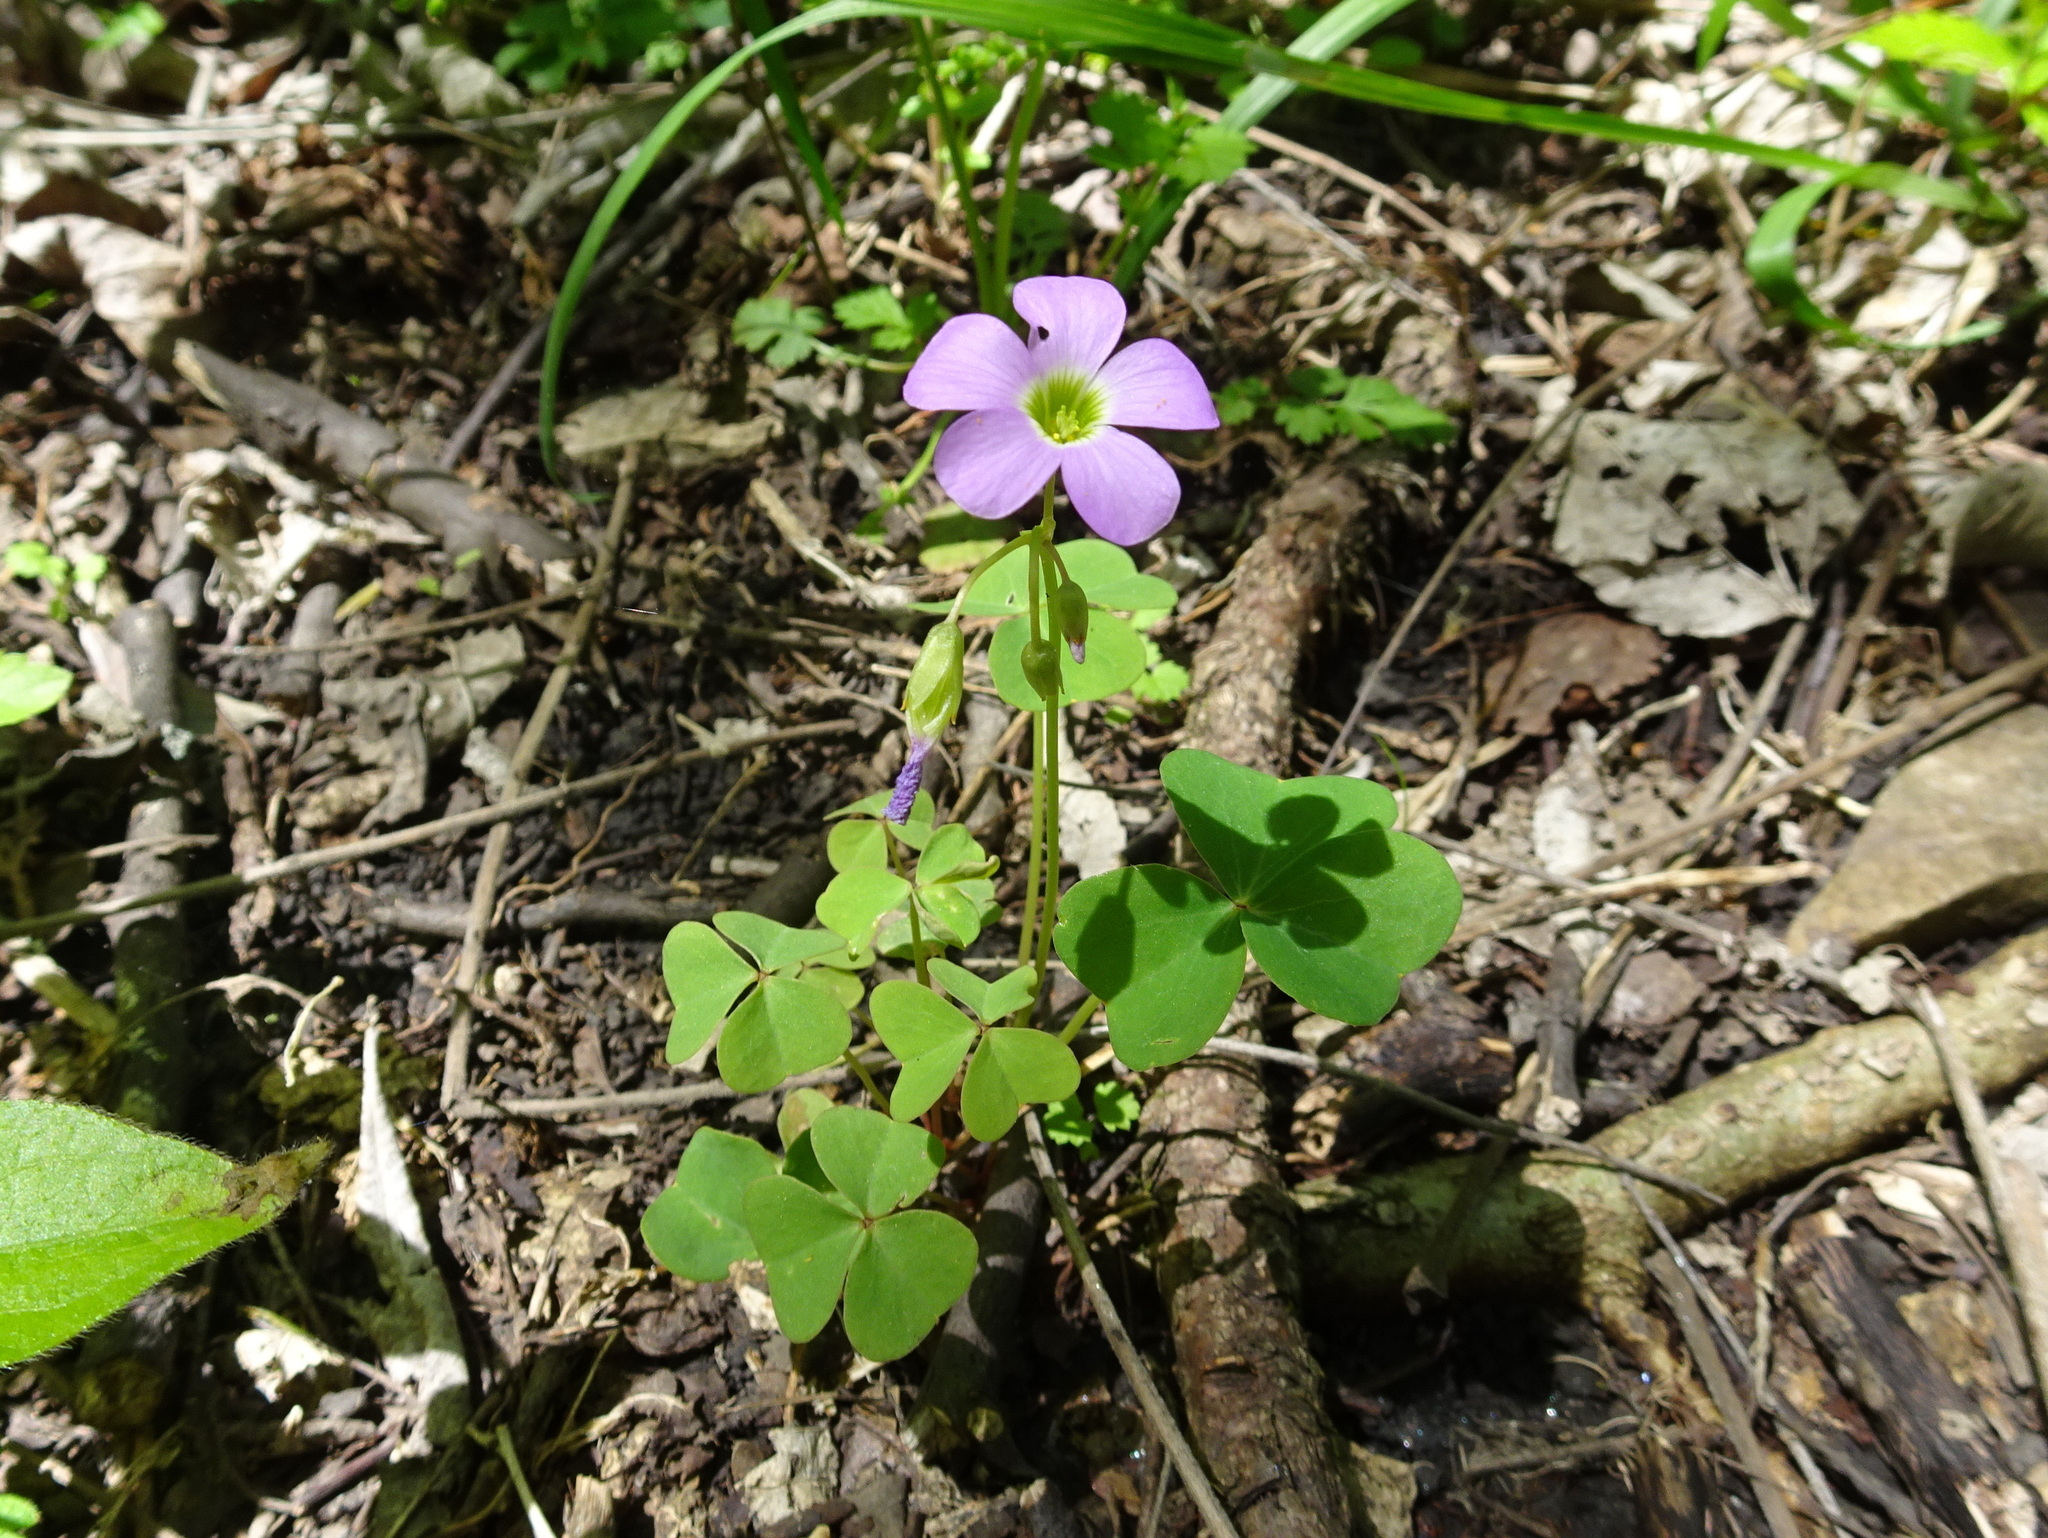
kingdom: Plantae
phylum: Tracheophyta
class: Magnoliopsida
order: Oxalidales
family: Oxalidaceae
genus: Oxalis
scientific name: Oxalis violacea
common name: Violet wood-sorrel
